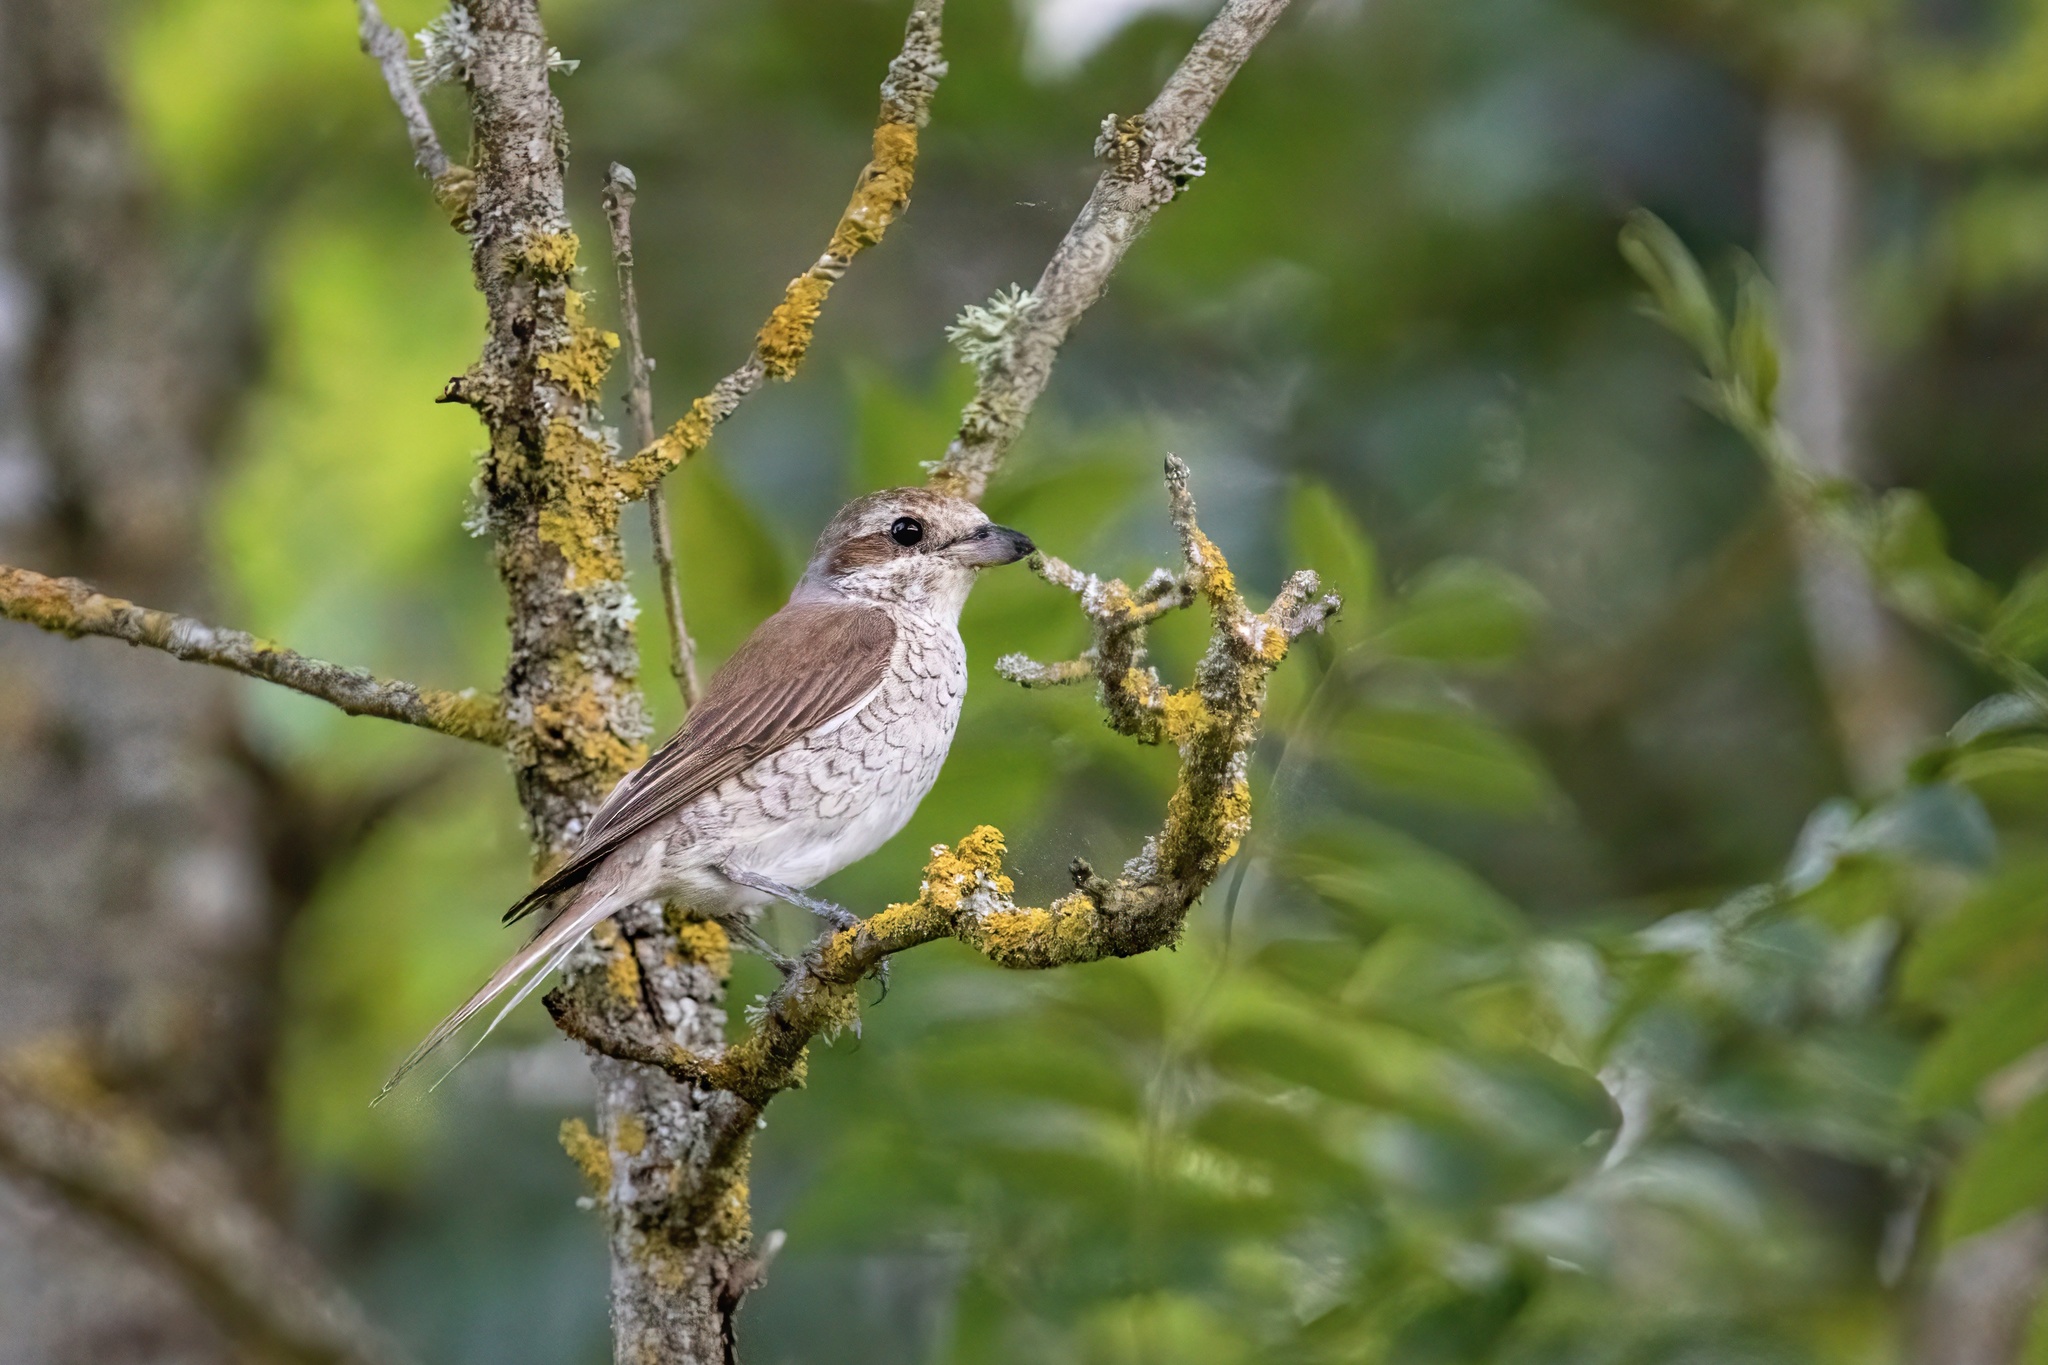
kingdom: Animalia
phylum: Chordata
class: Aves
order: Passeriformes
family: Laniidae
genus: Lanius
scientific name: Lanius collurio
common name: Red-backed shrike
